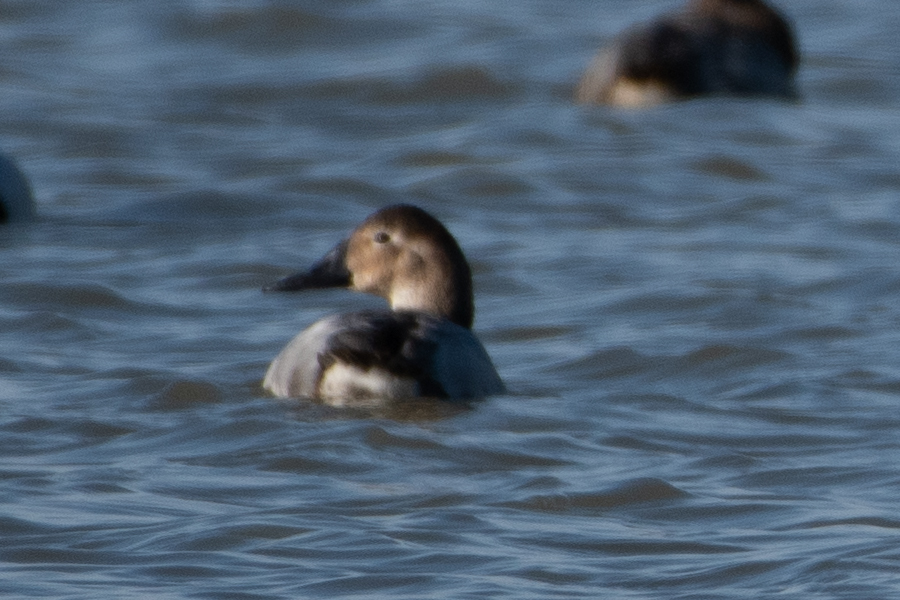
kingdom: Animalia
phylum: Chordata
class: Aves
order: Anseriformes
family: Anatidae
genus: Aythya
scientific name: Aythya valisineria
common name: Canvasback
